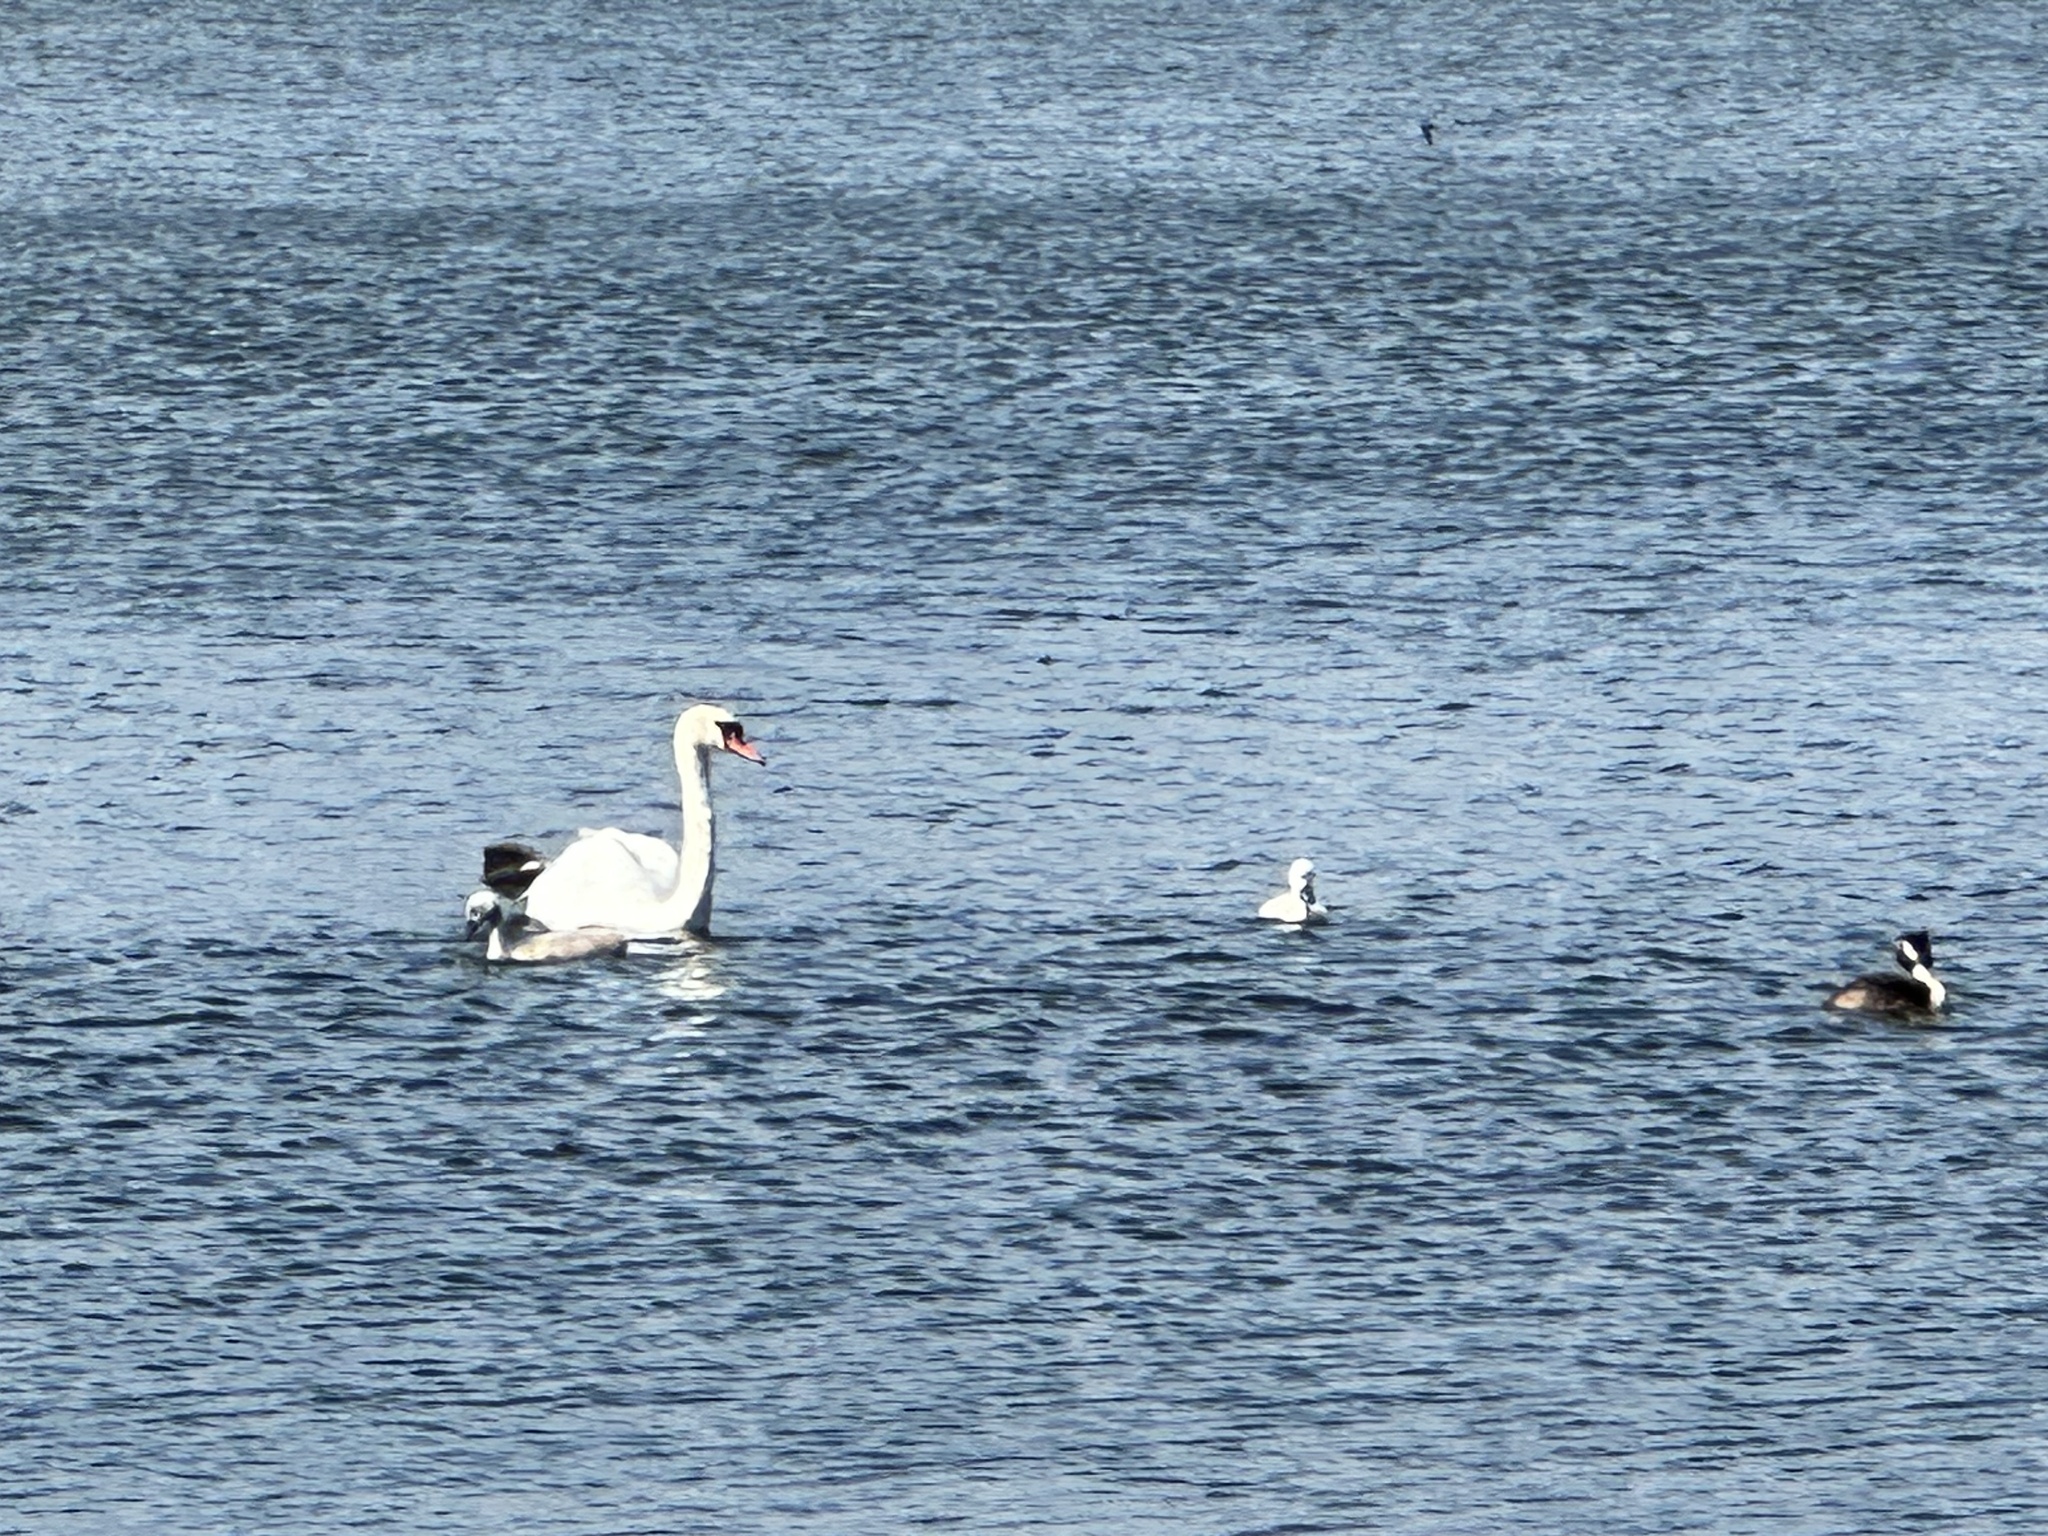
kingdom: Animalia
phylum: Chordata
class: Aves
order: Anseriformes
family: Anatidae
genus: Cygnus
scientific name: Cygnus olor
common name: Mute swan
